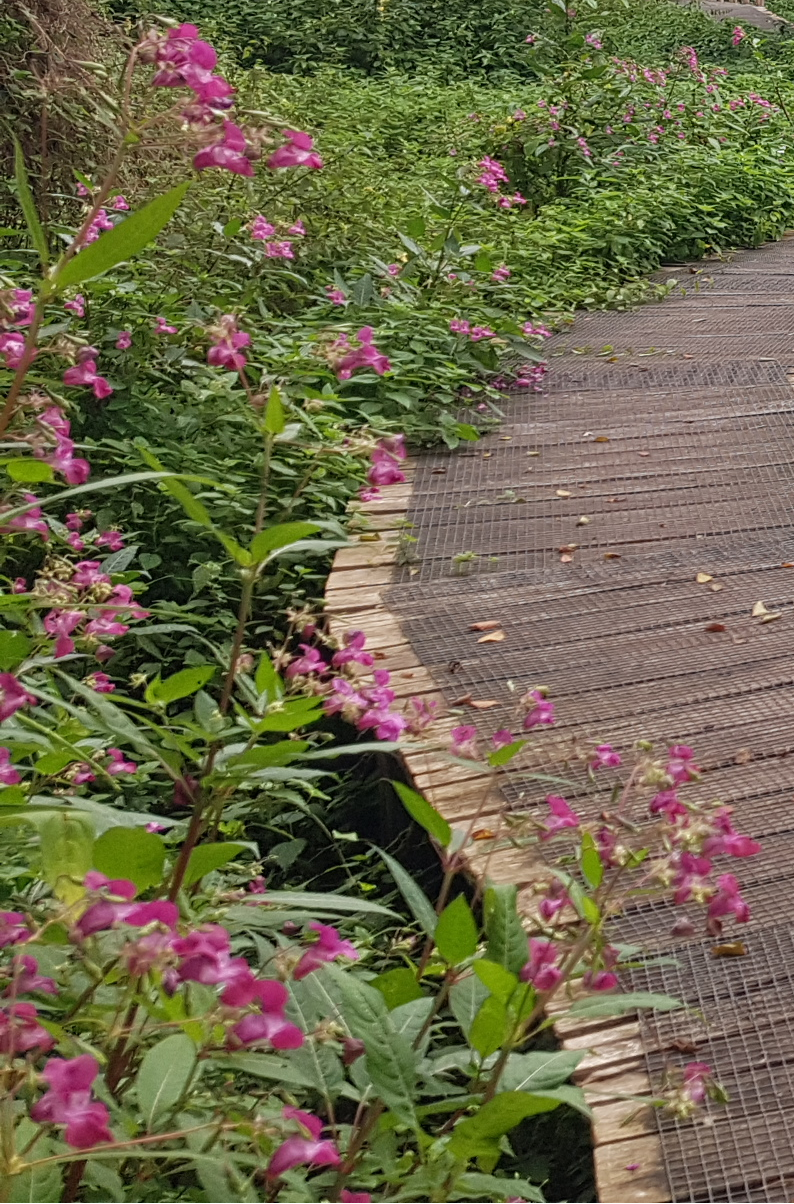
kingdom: Plantae
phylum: Tracheophyta
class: Magnoliopsida
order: Ericales
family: Balsaminaceae
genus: Impatiens
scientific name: Impatiens glandulifera
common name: Himalayan balsam
